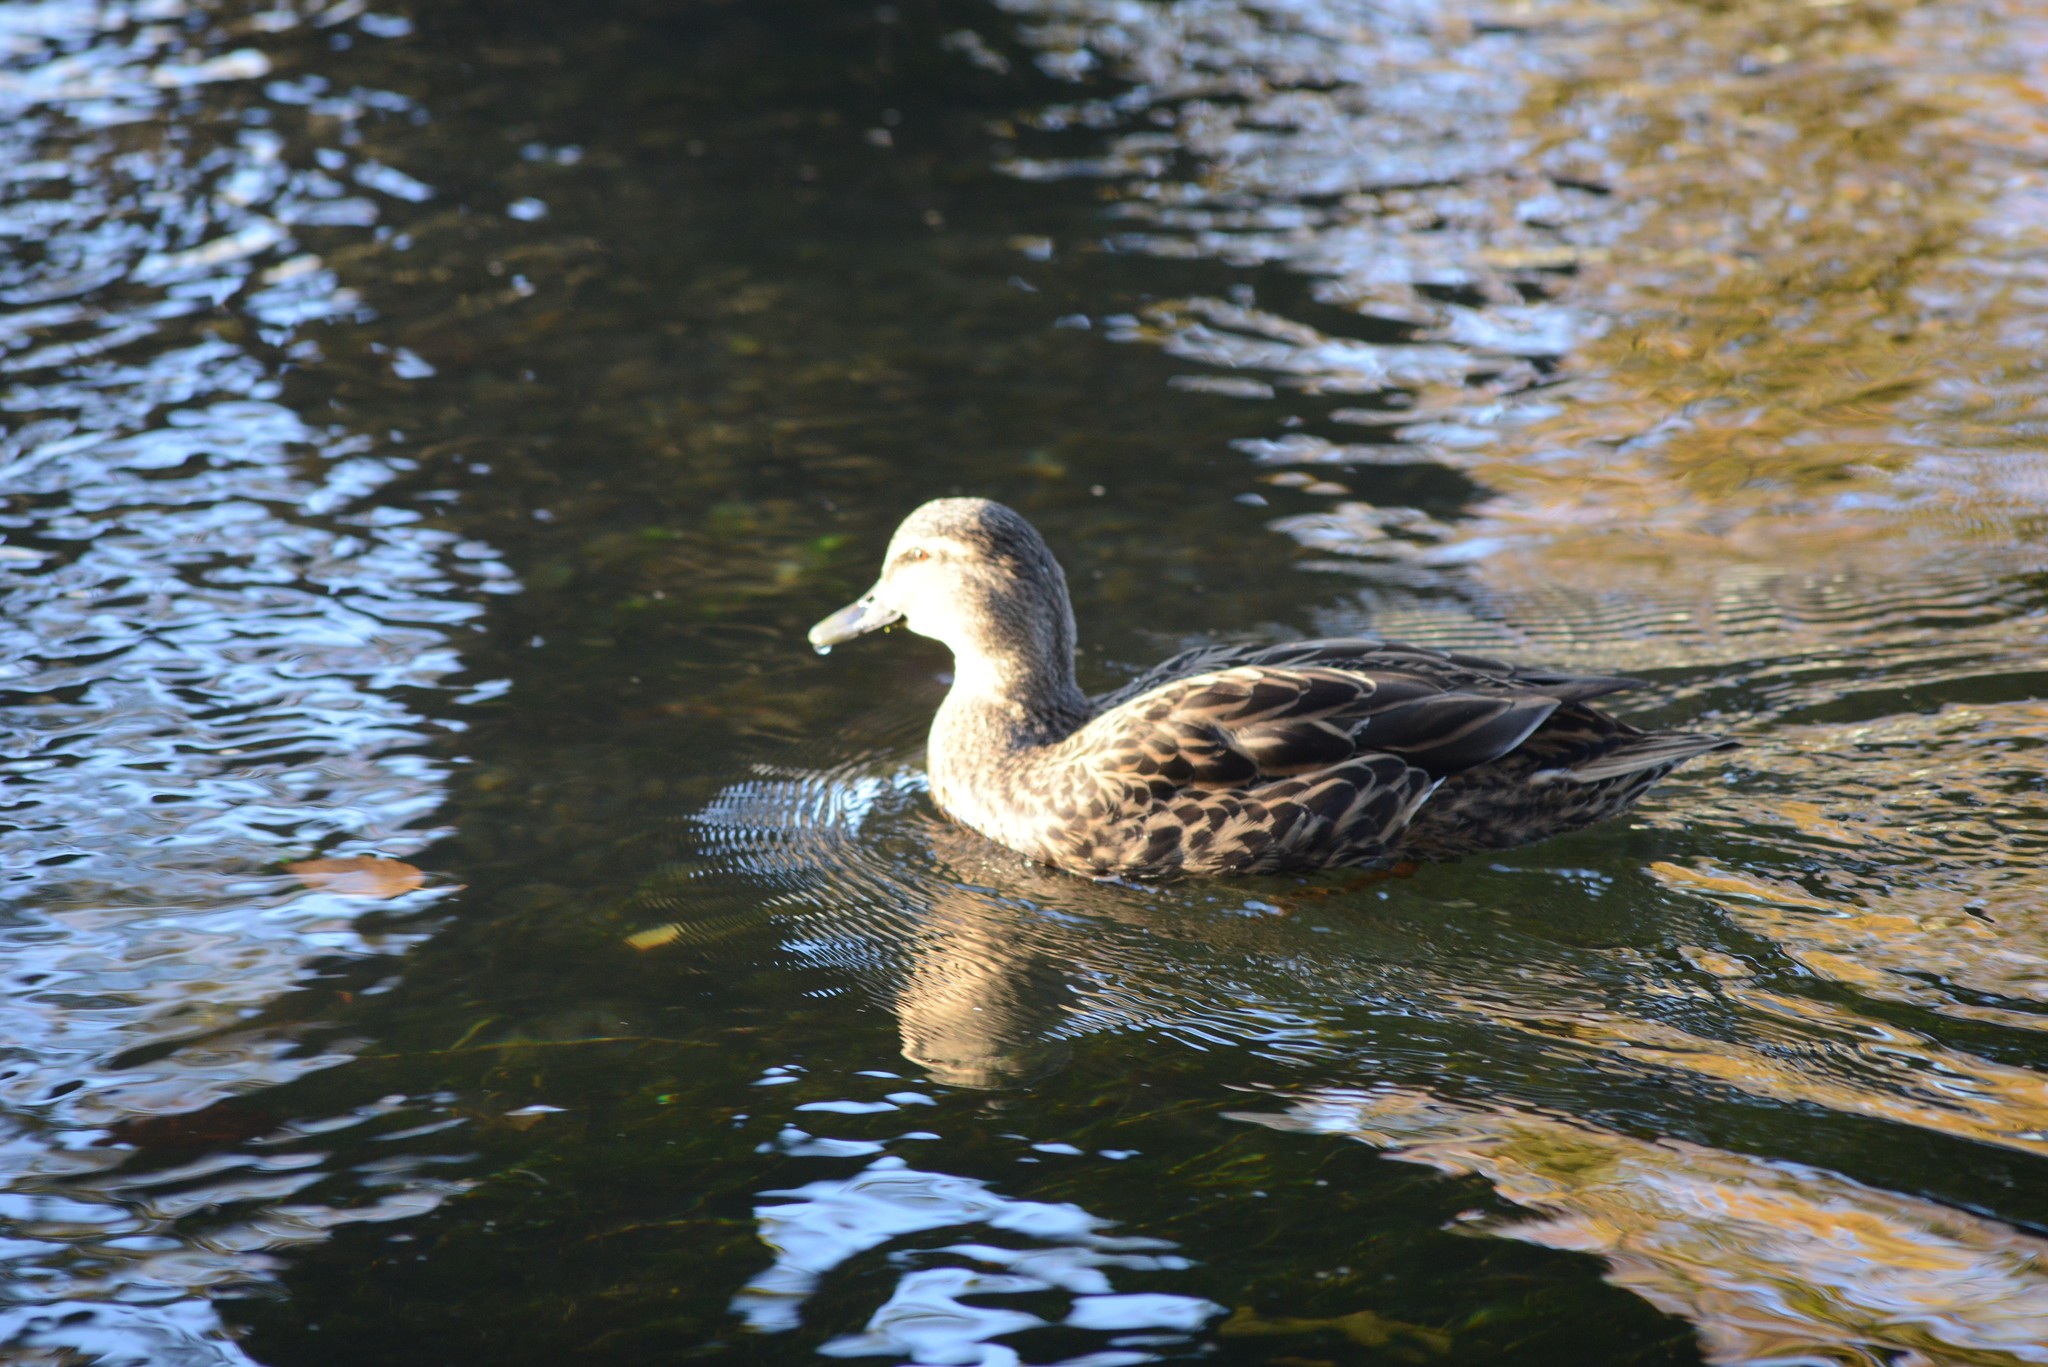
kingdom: Animalia
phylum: Chordata
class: Aves
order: Anseriformes
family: Anatidae
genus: Anas
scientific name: Anas platyrhynchos
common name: Mallard
